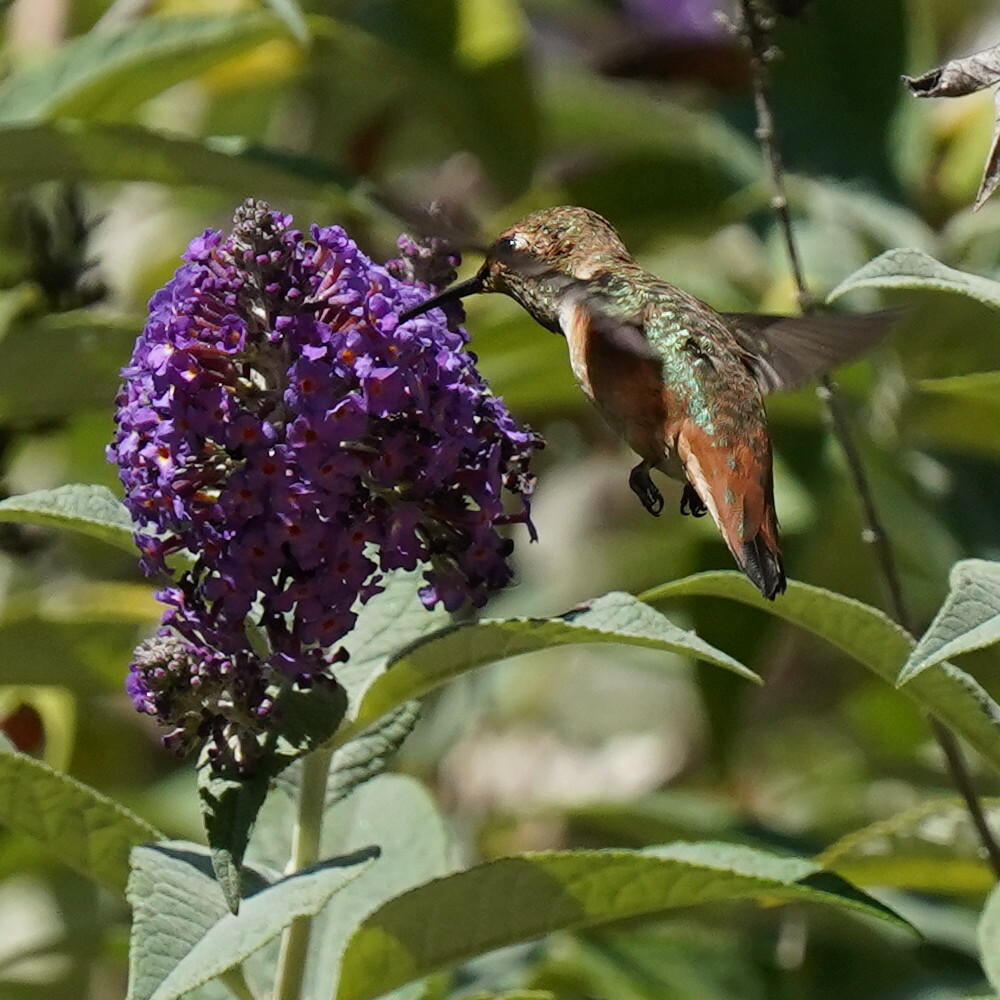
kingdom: Animalia
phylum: Chordata
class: Aves
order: Apodiformes
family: Trochilidae
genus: Selasphorus
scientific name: Selasphorus sasin
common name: Allen's hummingbird
